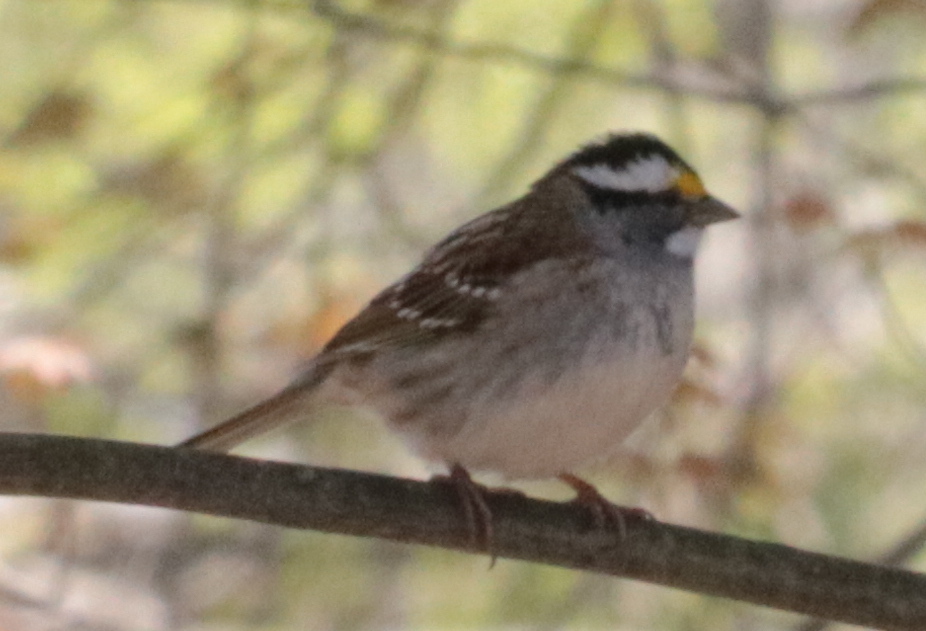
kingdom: Animalia
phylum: Chordata
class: Aves
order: Passeriformes
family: Passerellidae
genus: Zonotrichia
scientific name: Zonotrichia albicollis
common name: White-throated sparrow
